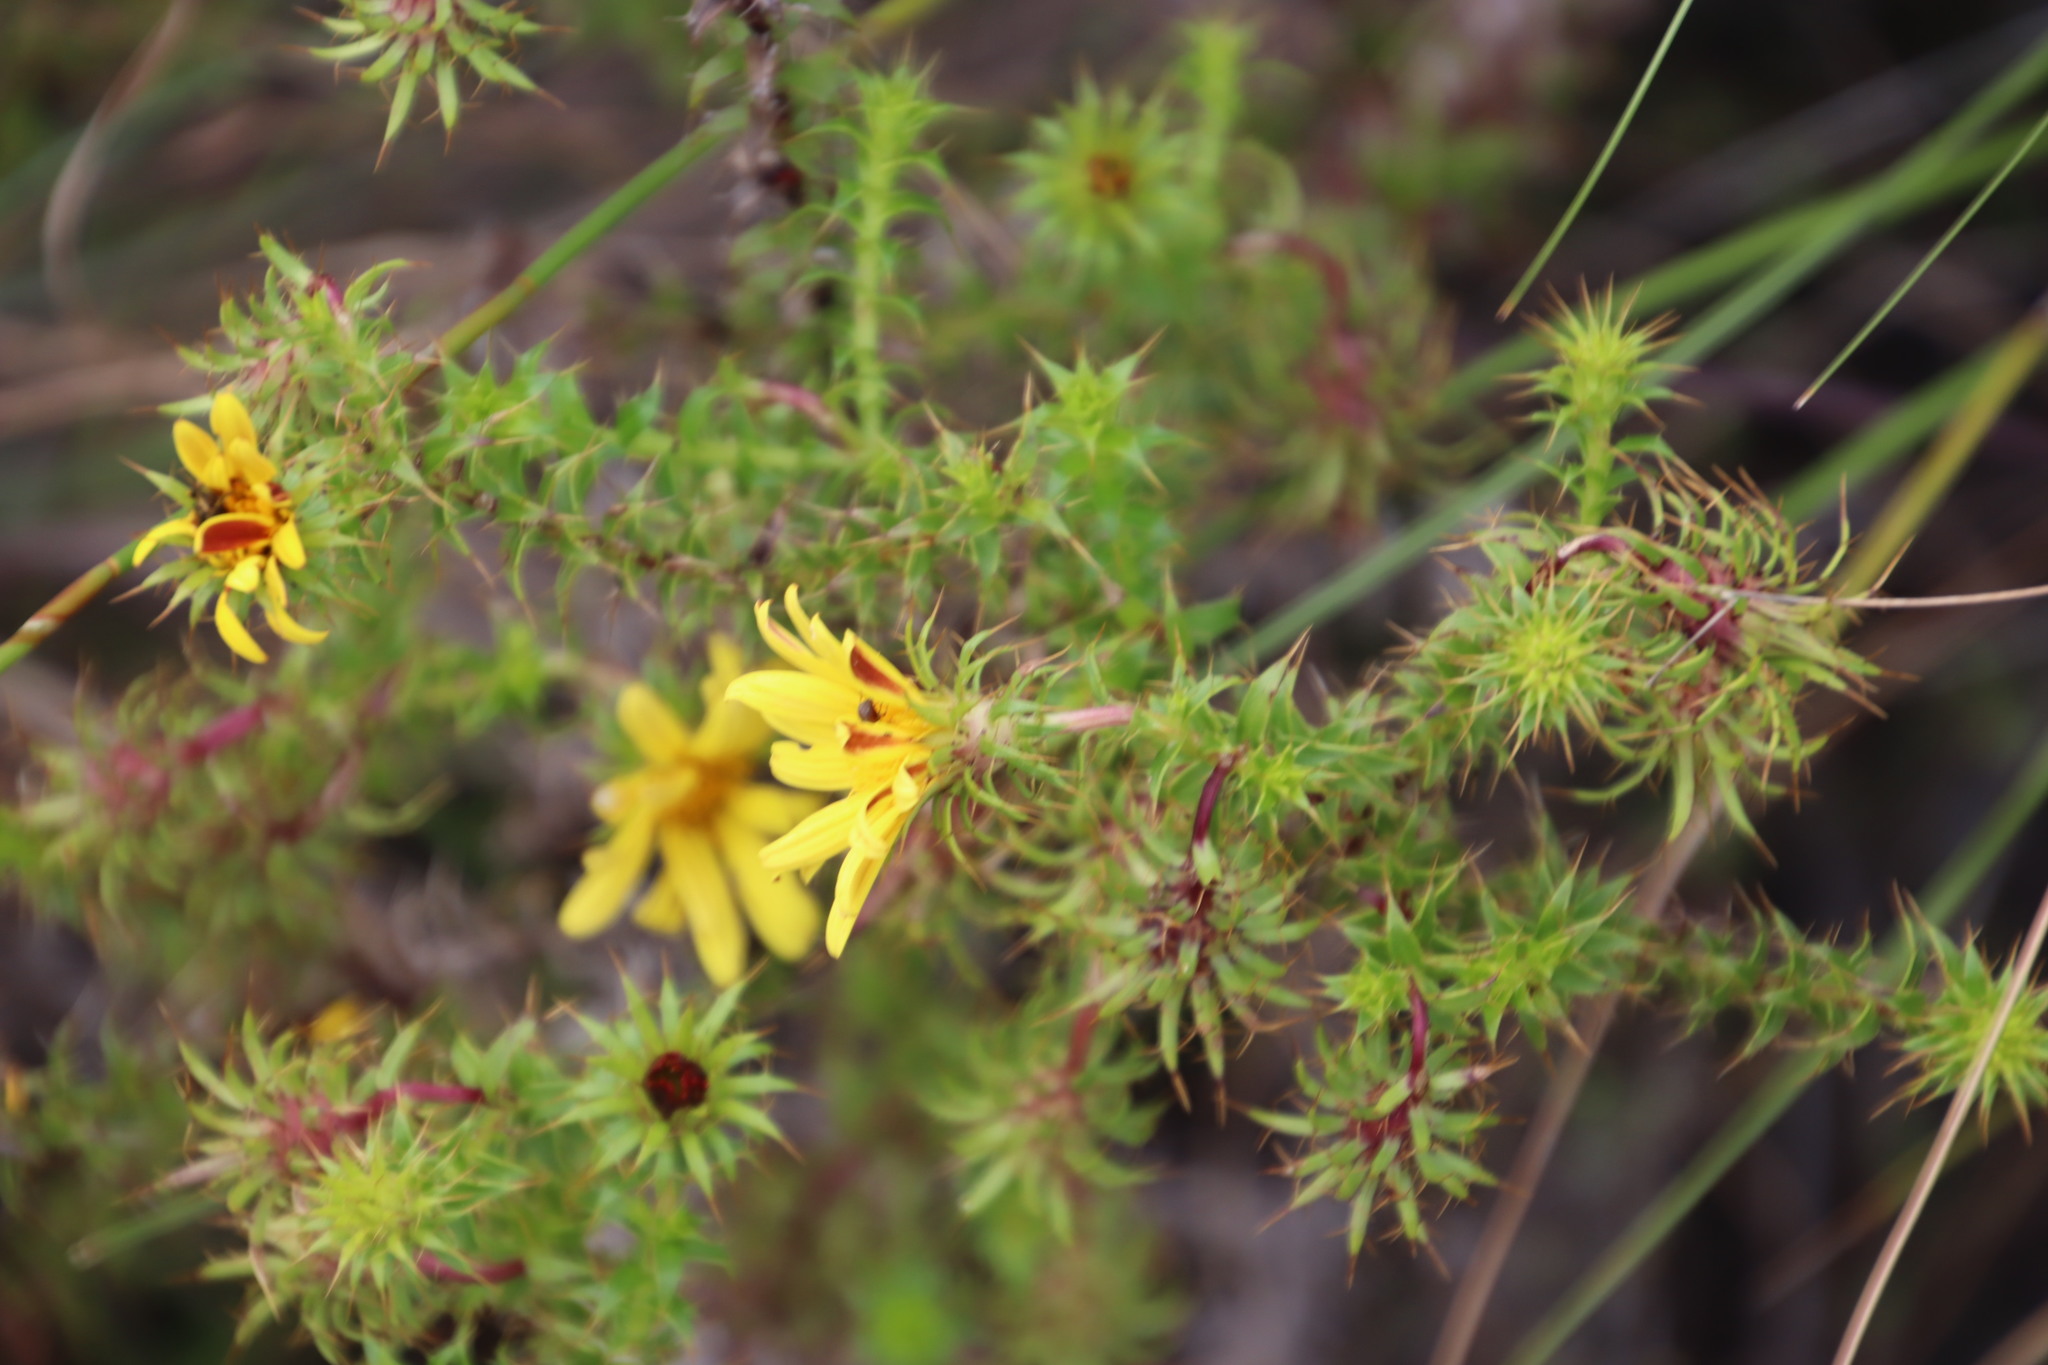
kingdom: Plantae
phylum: Tracheophyta
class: Magnoliopsida
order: Asterales
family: Asteraceae
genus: Cullumia
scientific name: Cullumia setosa
